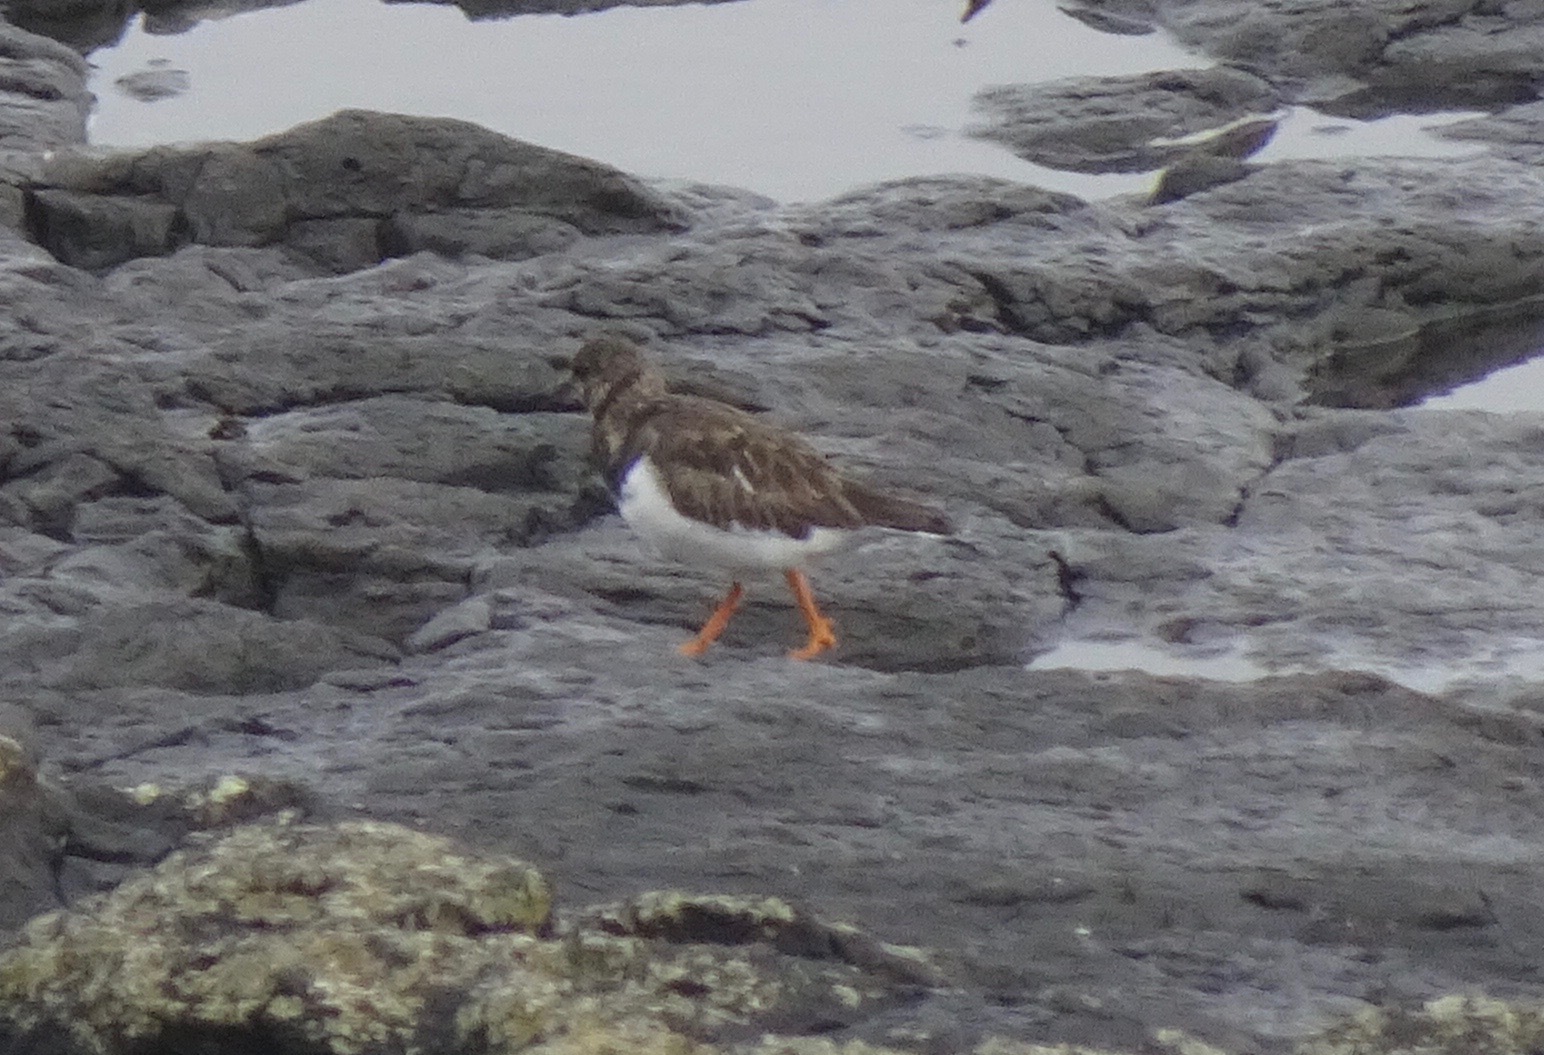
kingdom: Animalia
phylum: Chordata
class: Aves
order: Charadriiformes
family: Scolopacidae
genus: Arenaria
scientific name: Arenaria interpres
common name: Ruddy turnstone
